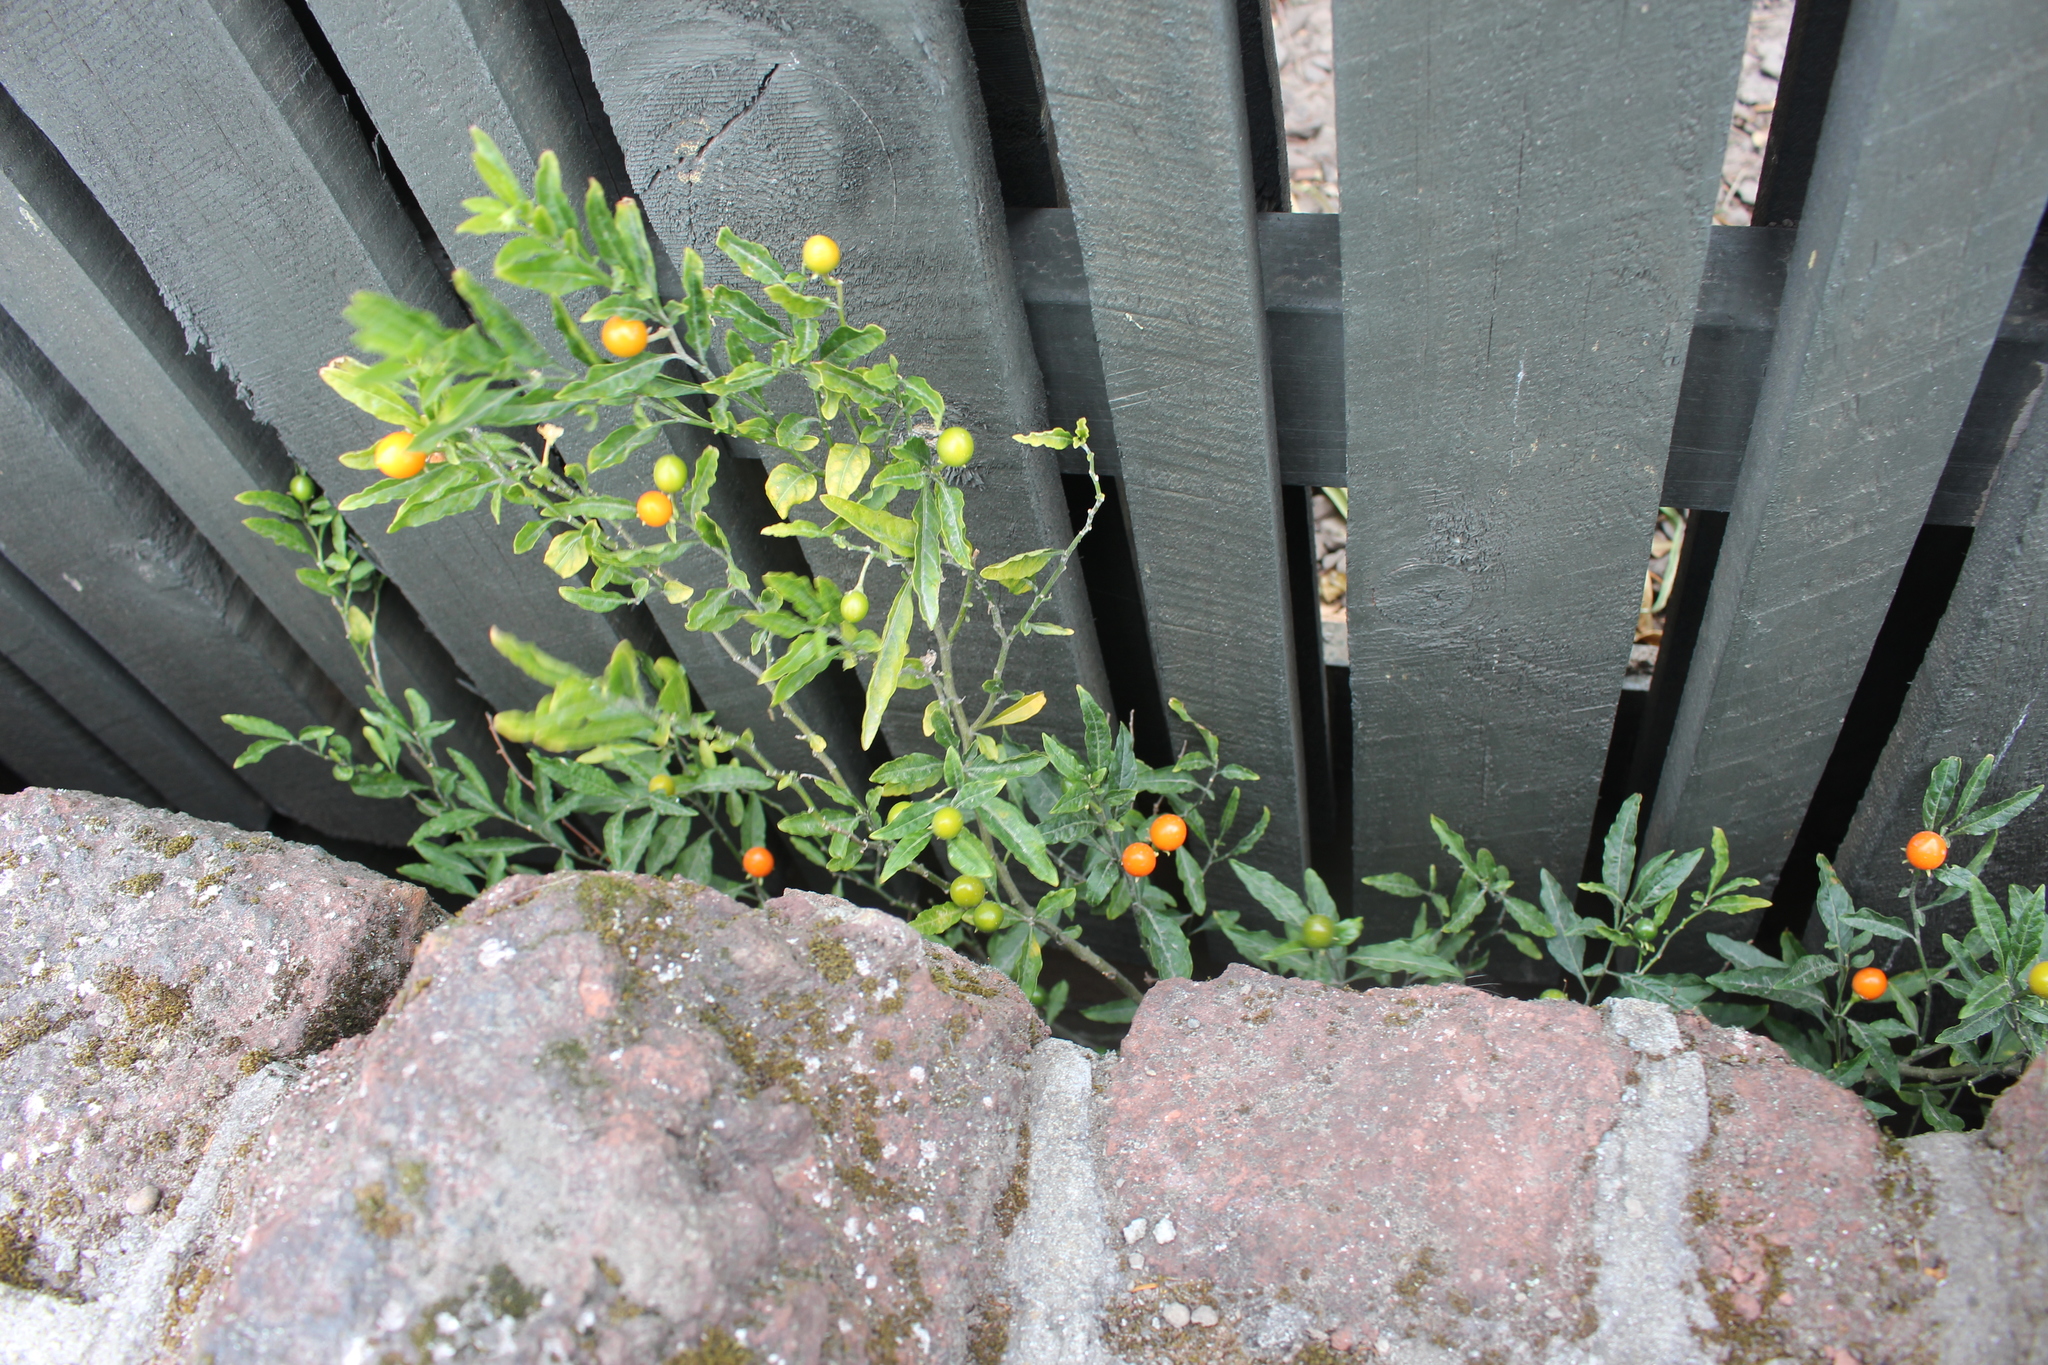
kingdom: Plantae
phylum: Tracheophyta
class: Magnoliopsida
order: Solanales
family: Solanaceae
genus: Solanum
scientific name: Solanum pseudocapsicum
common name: Jerusalem cherry
